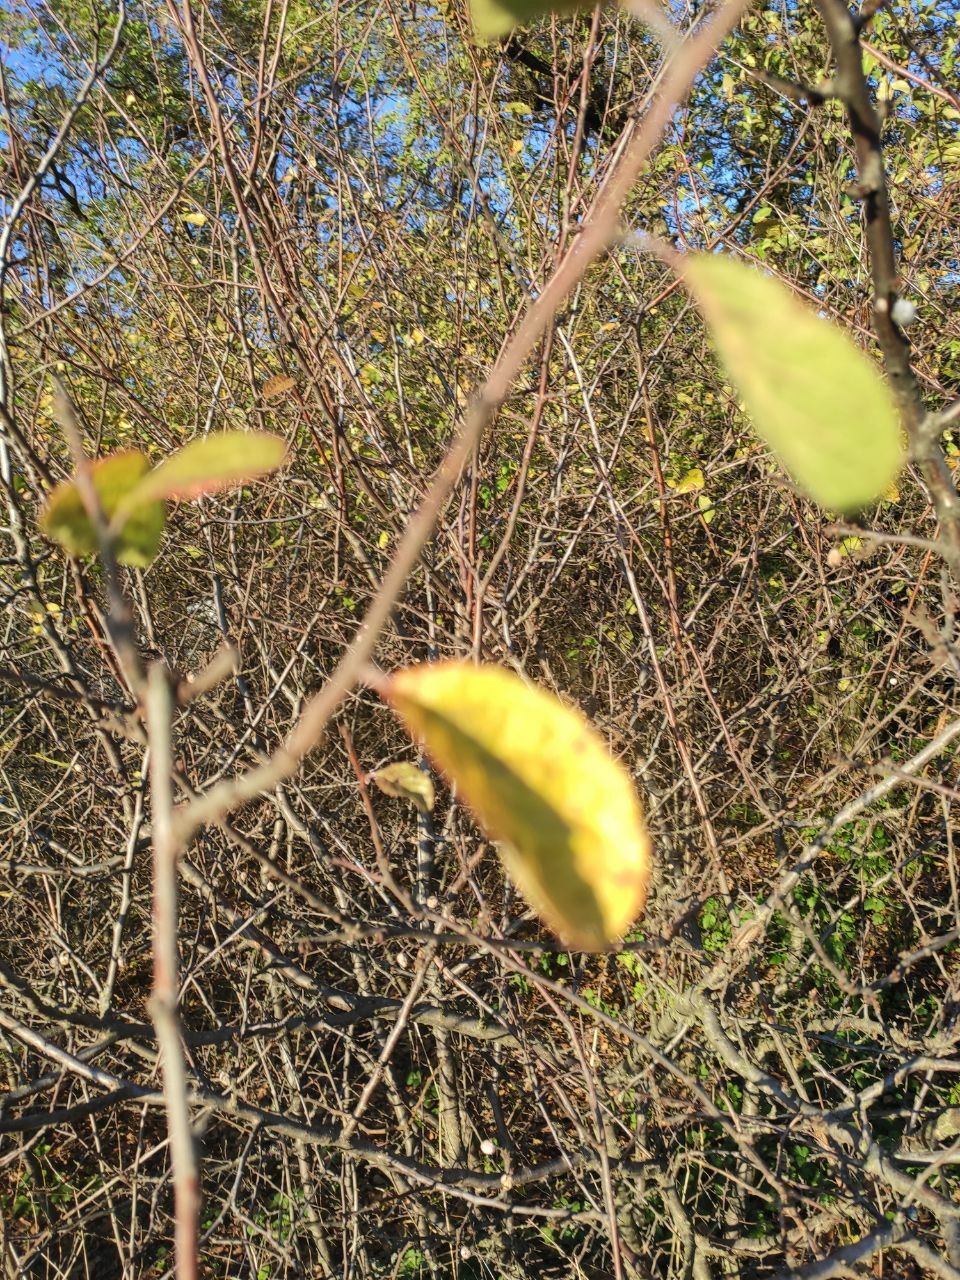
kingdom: Plantae
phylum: Tracheophyta
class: Magnoliopsida
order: Rosales
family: Rosaceae
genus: Prunus
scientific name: Prunus spinosa
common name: Blackthorn
